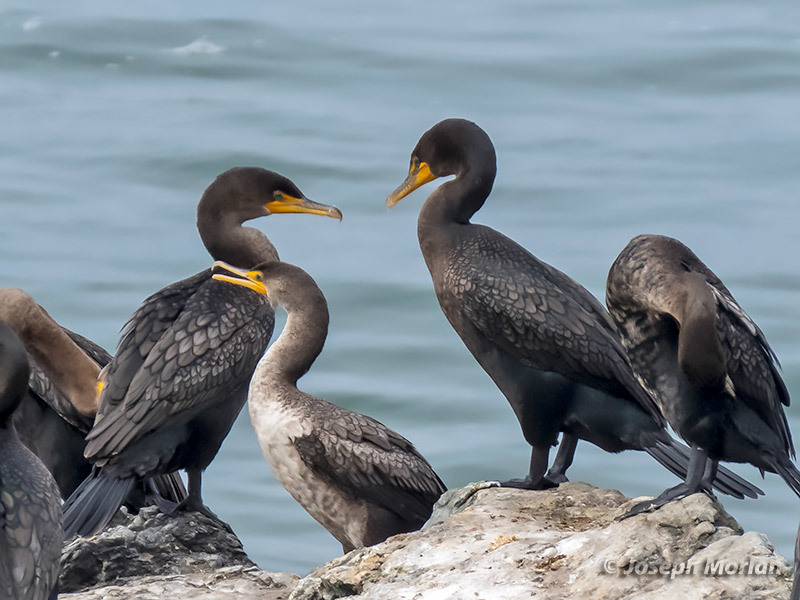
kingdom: Animalia
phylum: Chordata
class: Aves
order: Suliformes
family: Phalacrocoracidae
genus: Phalacrocorax
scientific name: Phalacrocorax auritus
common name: Double-crested cormorant
